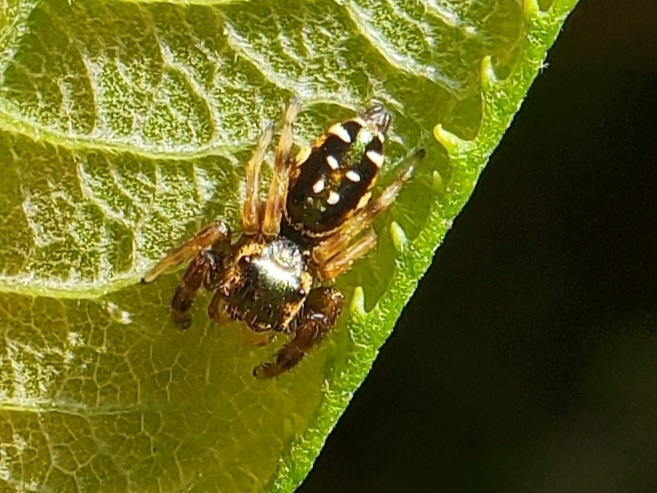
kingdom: Animalia
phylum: Arthropoda
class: Arachnida
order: Araneae
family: Salticidae
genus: Paraphidippus
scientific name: Paraphidippus aurantius
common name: Jumping spiders
